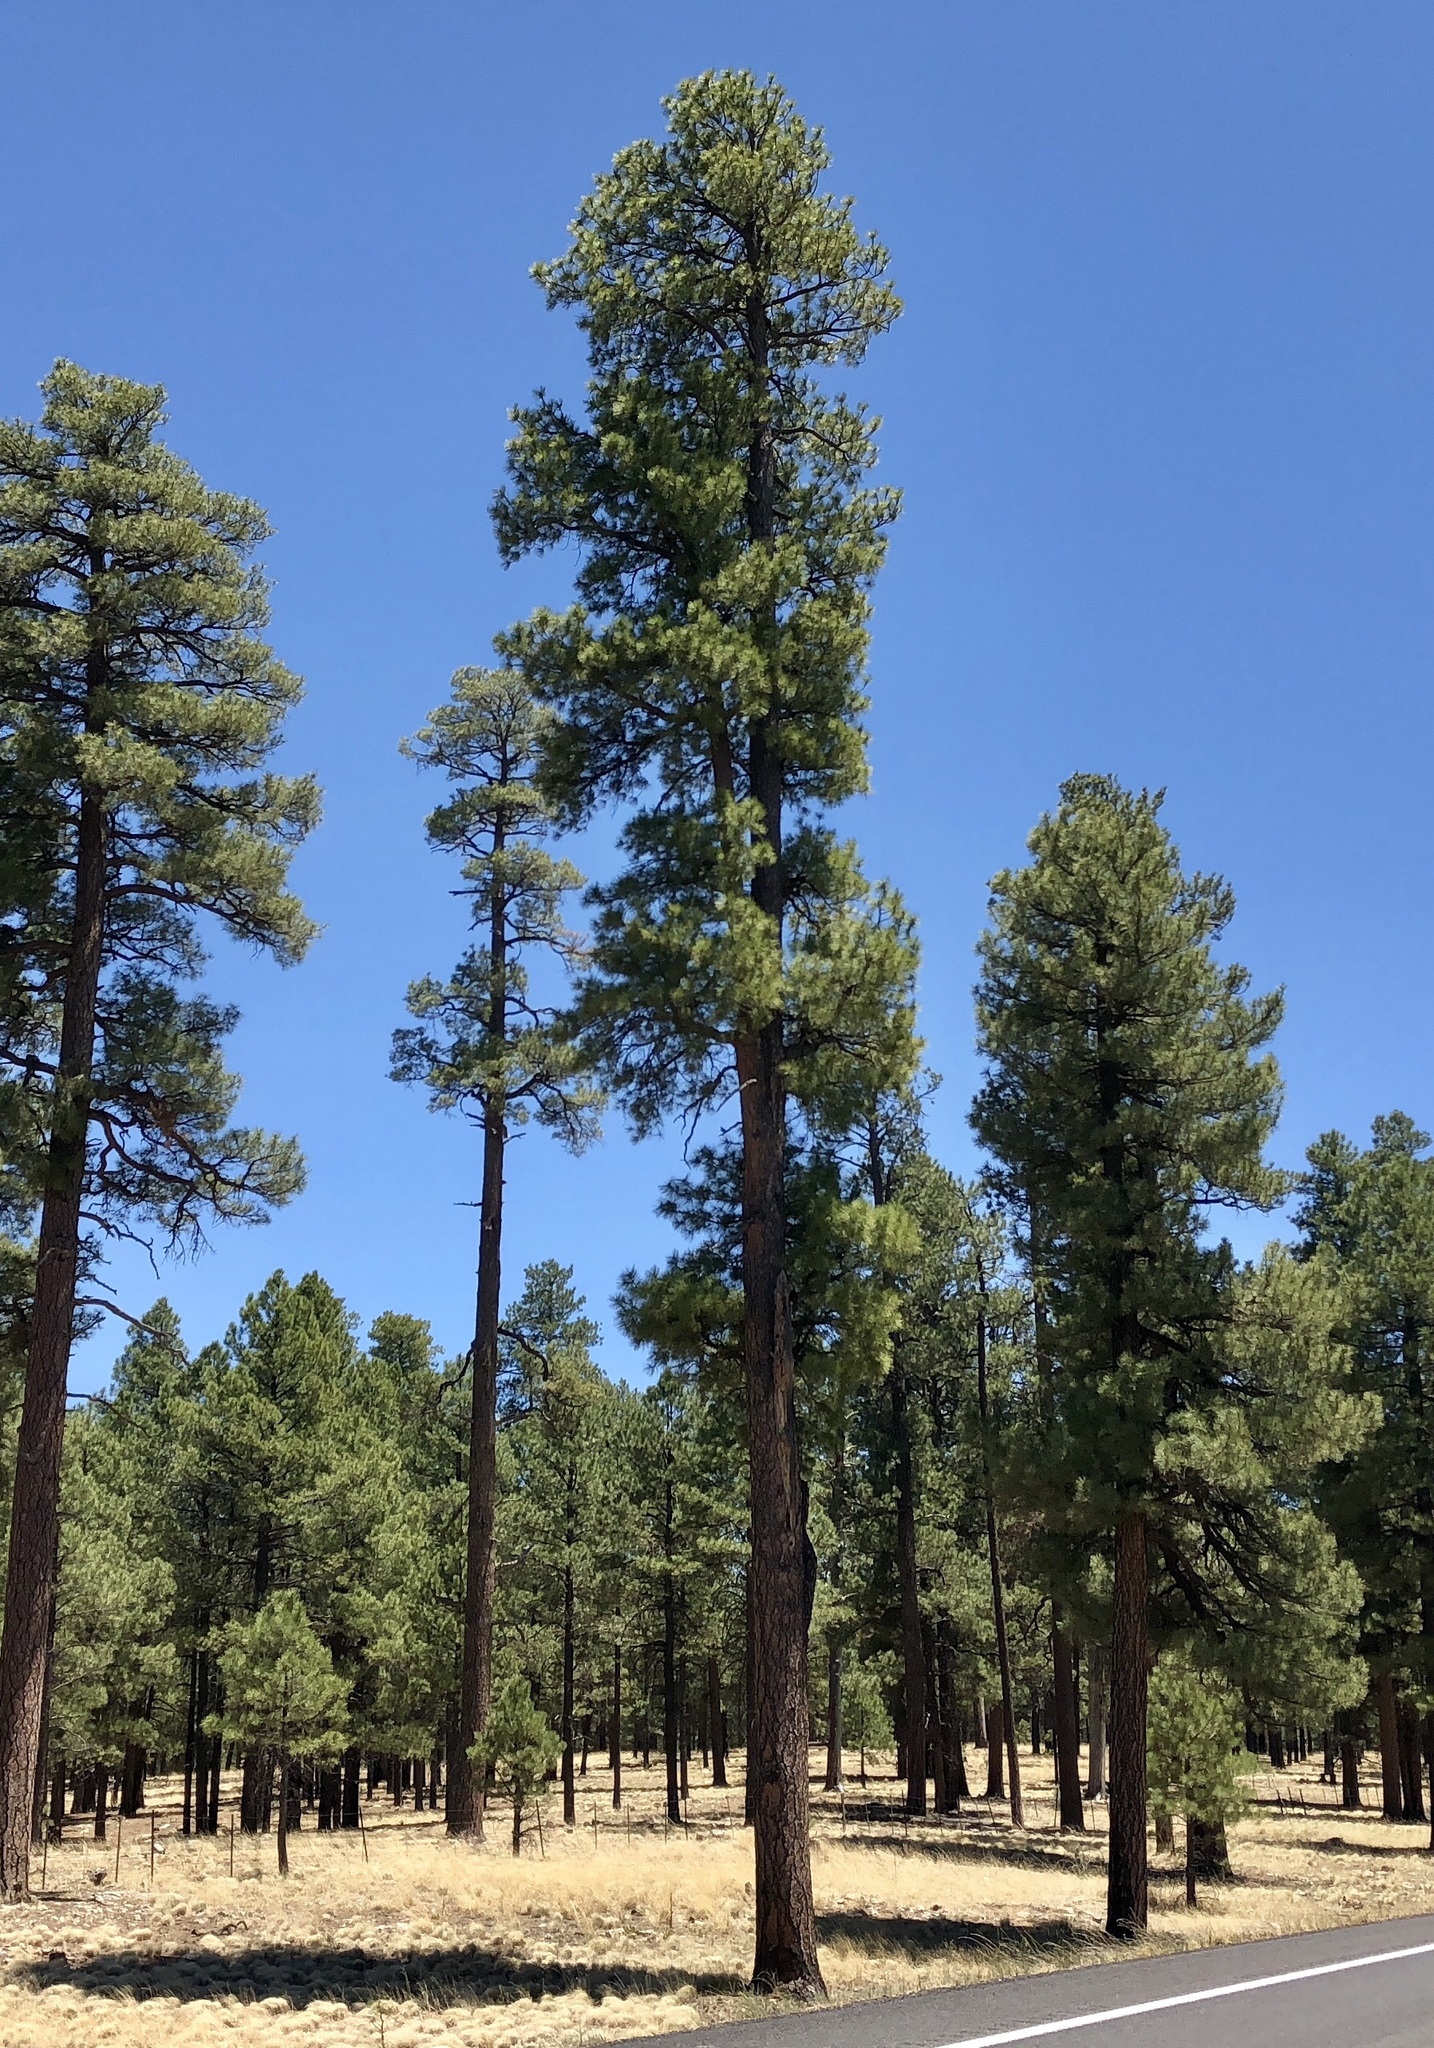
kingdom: Plantae
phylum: Tracheophyta
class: Pinopsida
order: Pinales
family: Pinaceae
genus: Pinus
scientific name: Pinus ponderosa
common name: Western yellow-pine
